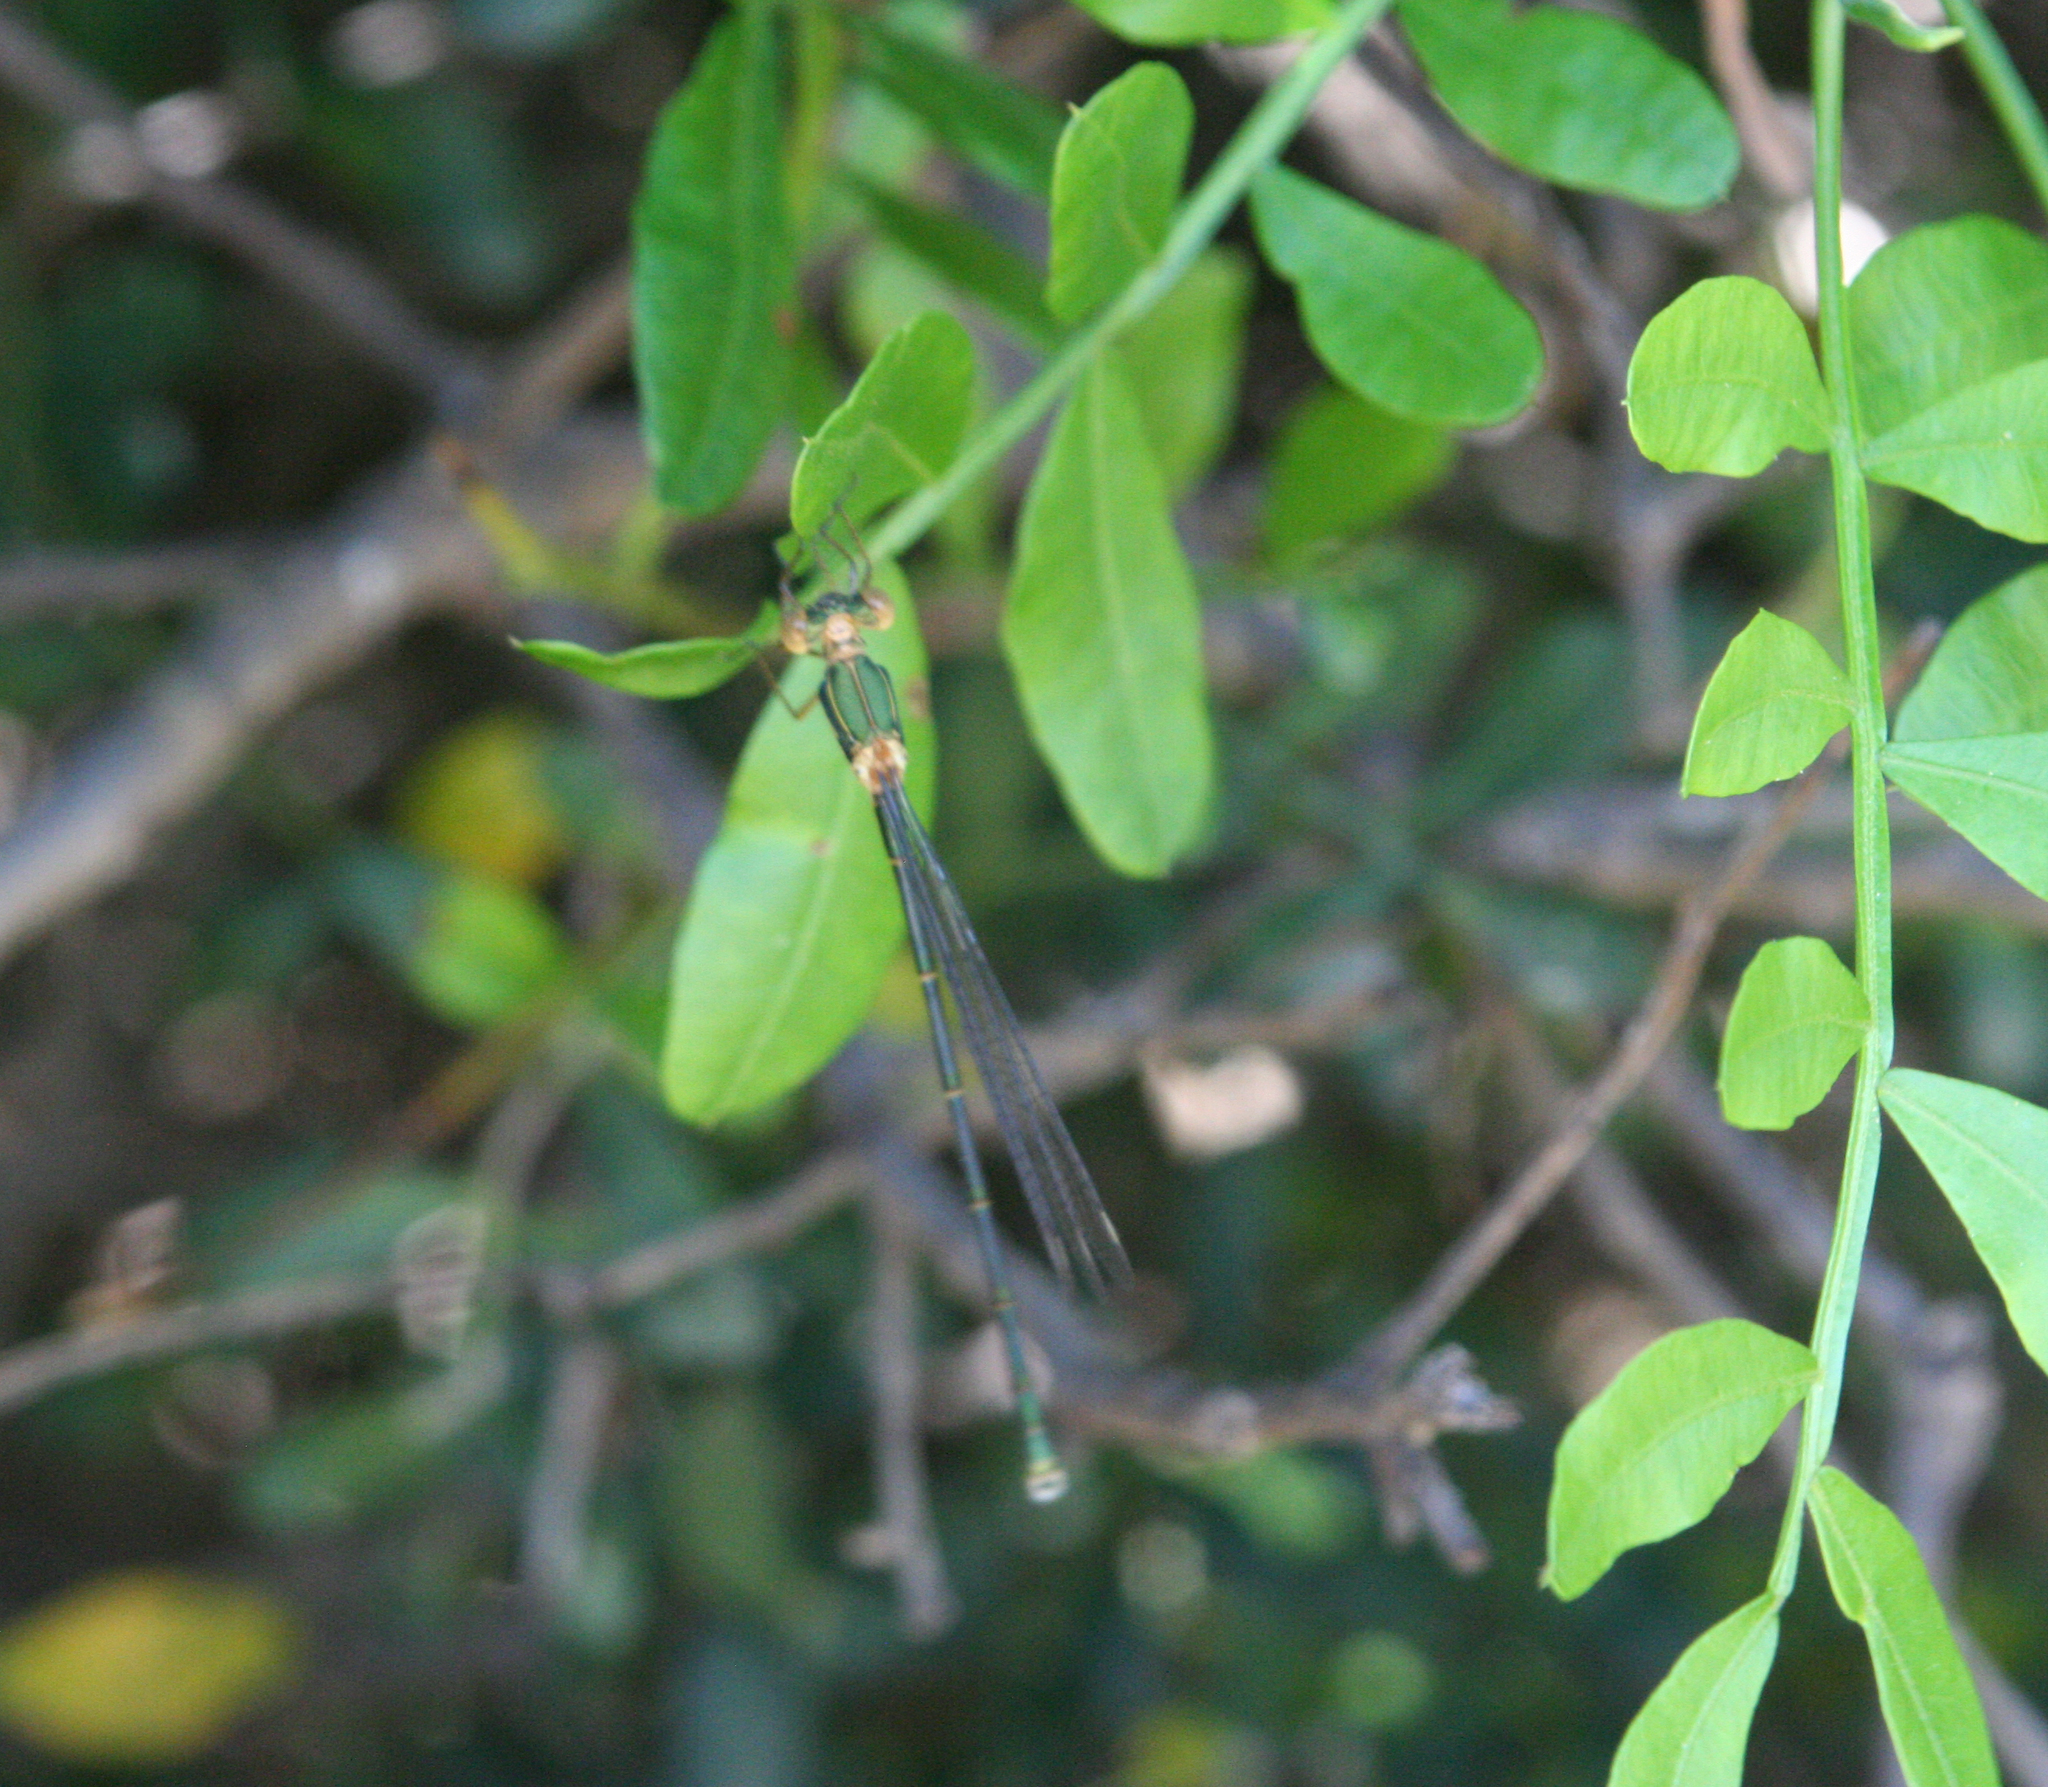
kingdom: Animalia
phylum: Arthropoda
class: Insecta
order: Odonata
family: Lestidae
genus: Chalcolestes
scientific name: Chalcolestes viridis
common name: Green emerald damselfly
